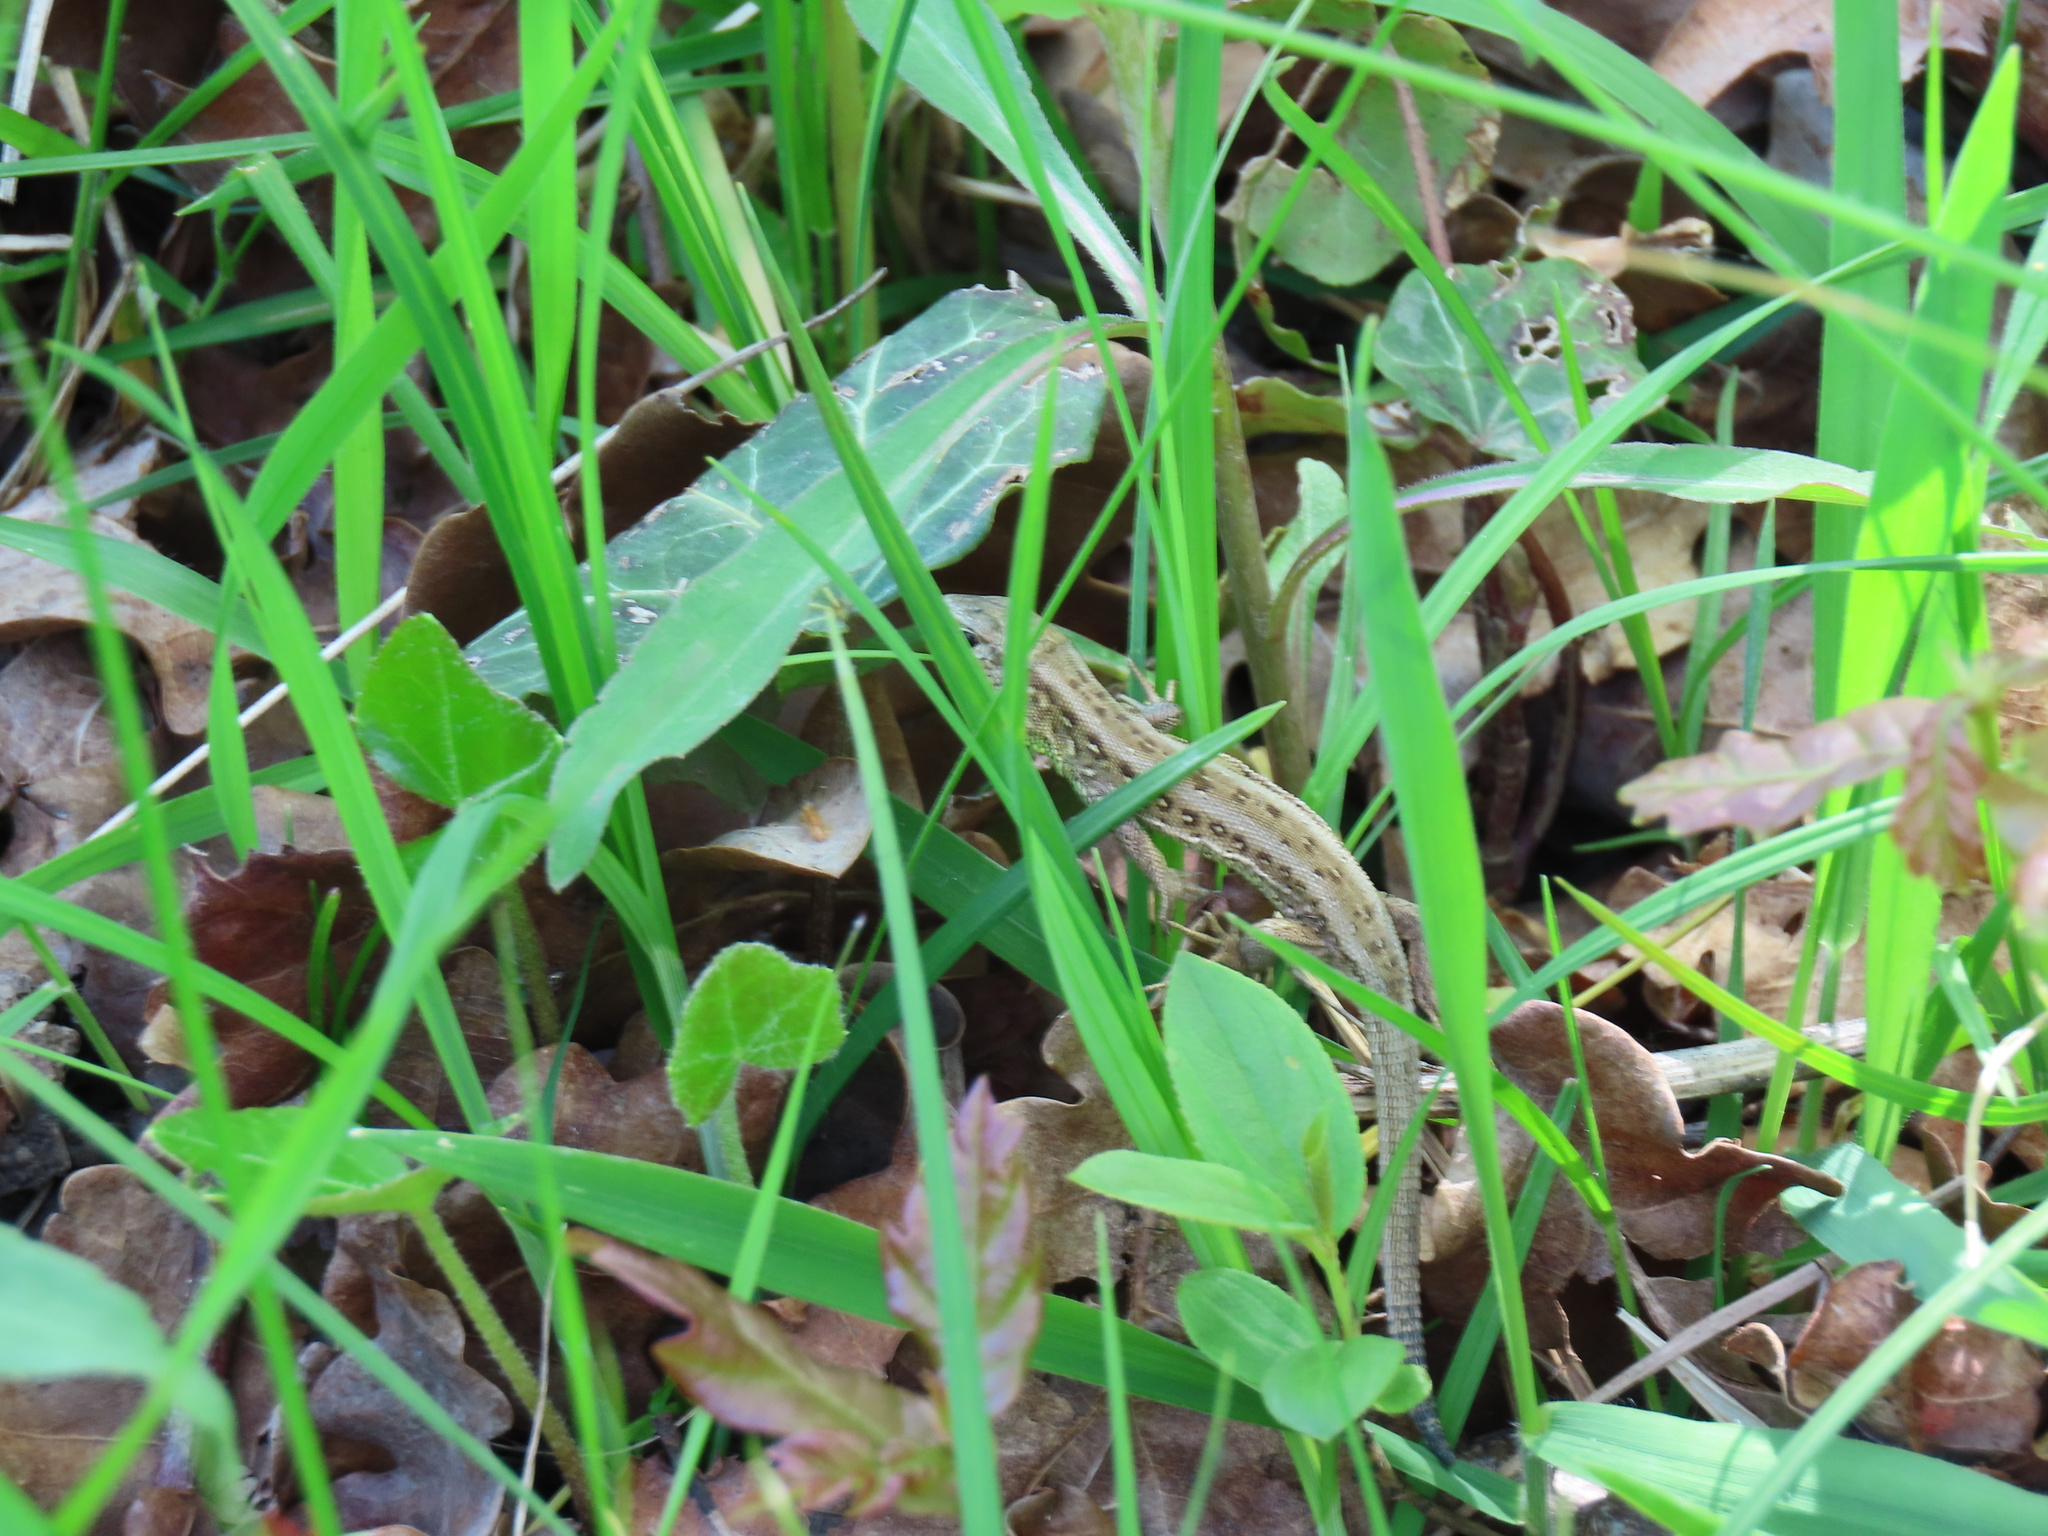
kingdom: Animalia
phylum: Chordata
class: Squamata
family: Lacertidae
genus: Lacerta
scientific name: Lacerta agilis
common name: Sand lizard
